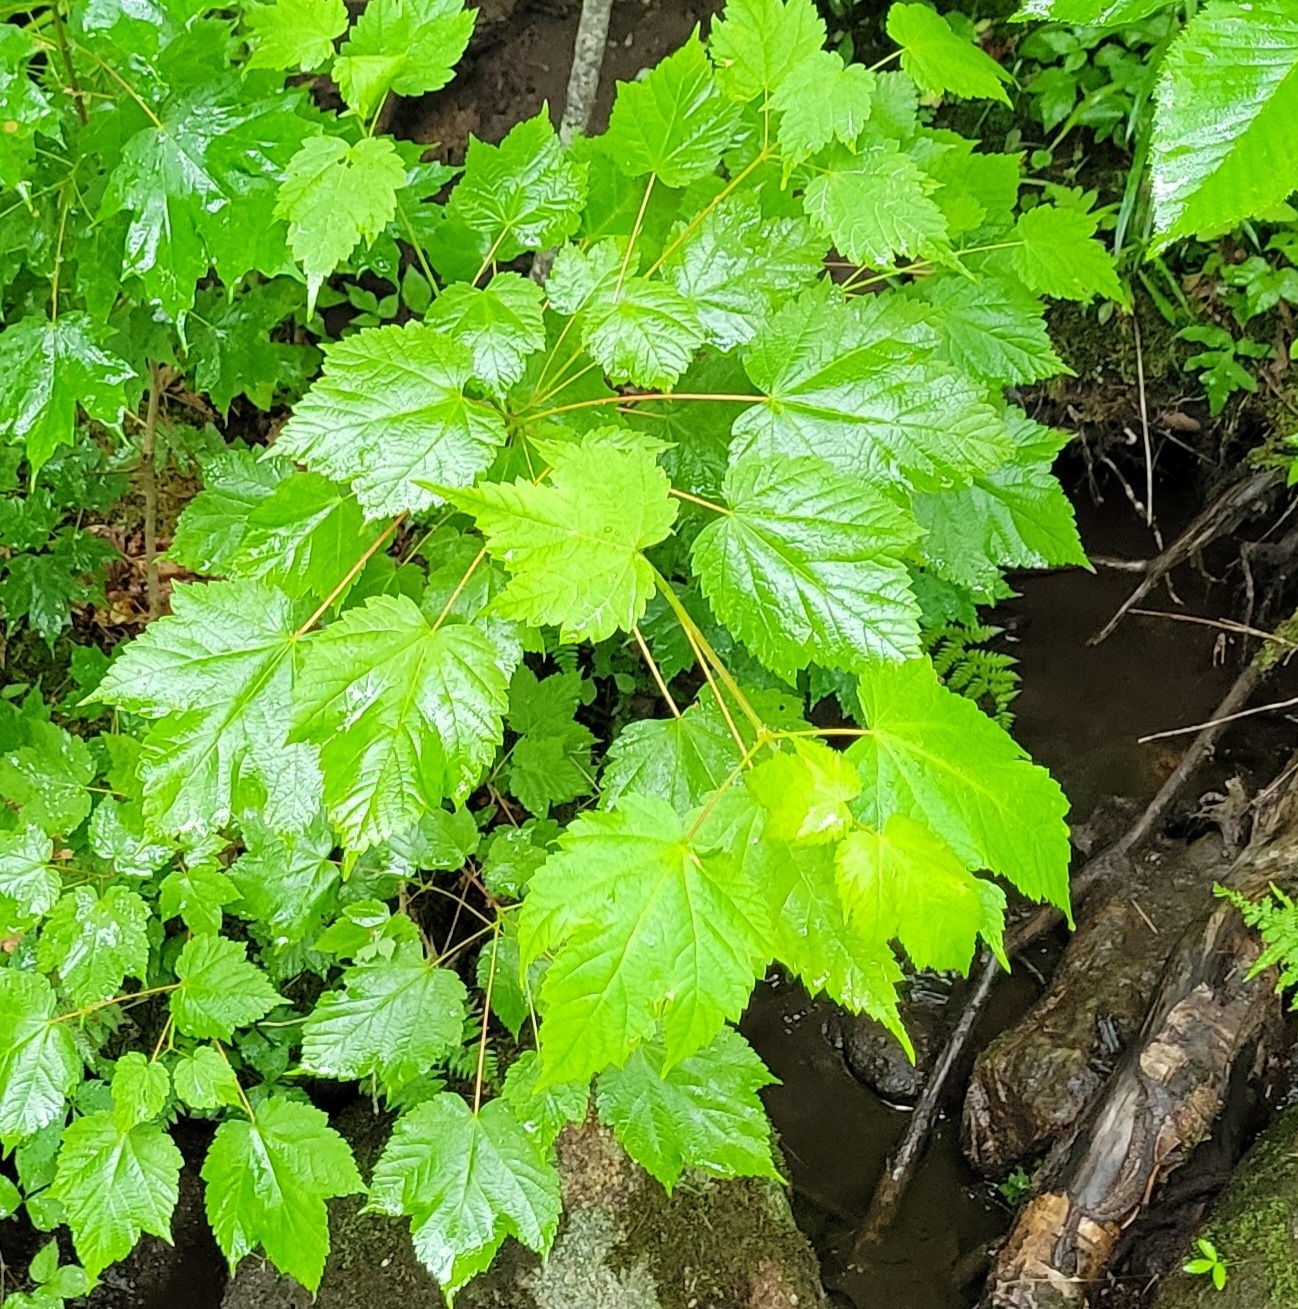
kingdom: Plantae
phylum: Tracheophyta
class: Magnoliopsida
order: Sapindales
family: Sapindaceae
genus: Acer
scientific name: Acer spicatum
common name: Mountain maple
